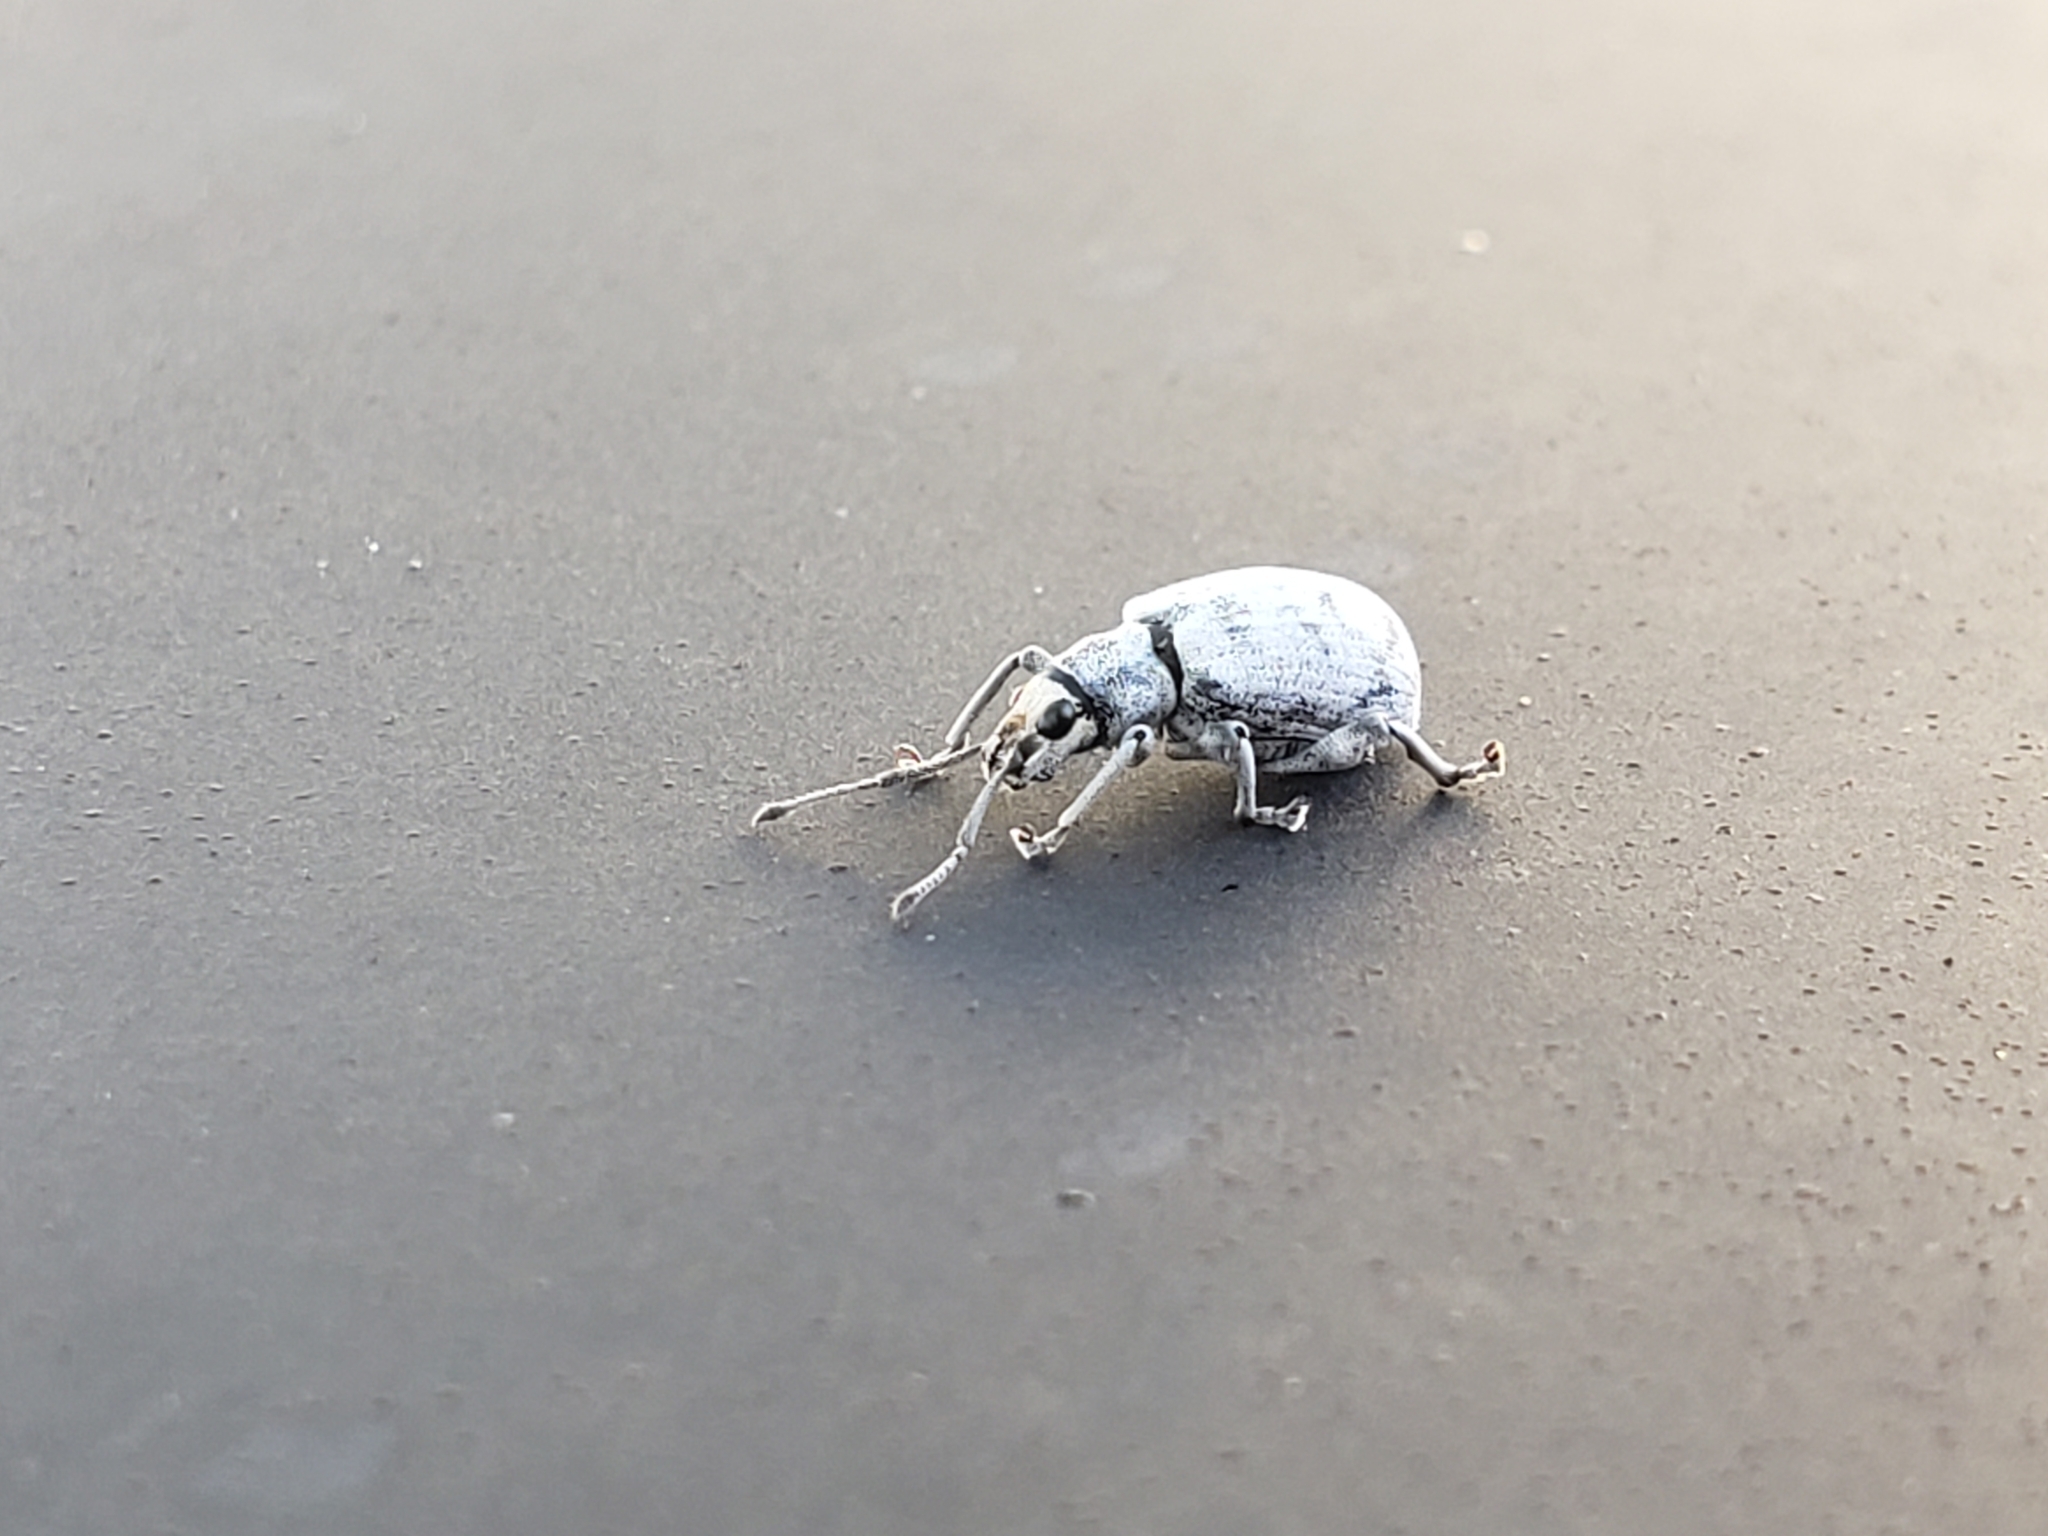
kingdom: Animalia
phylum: Arthropoda
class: Insecta
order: Coleoptera
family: Curculionidae
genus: Myllocerus
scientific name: Myllocerus undecimpustulatus
